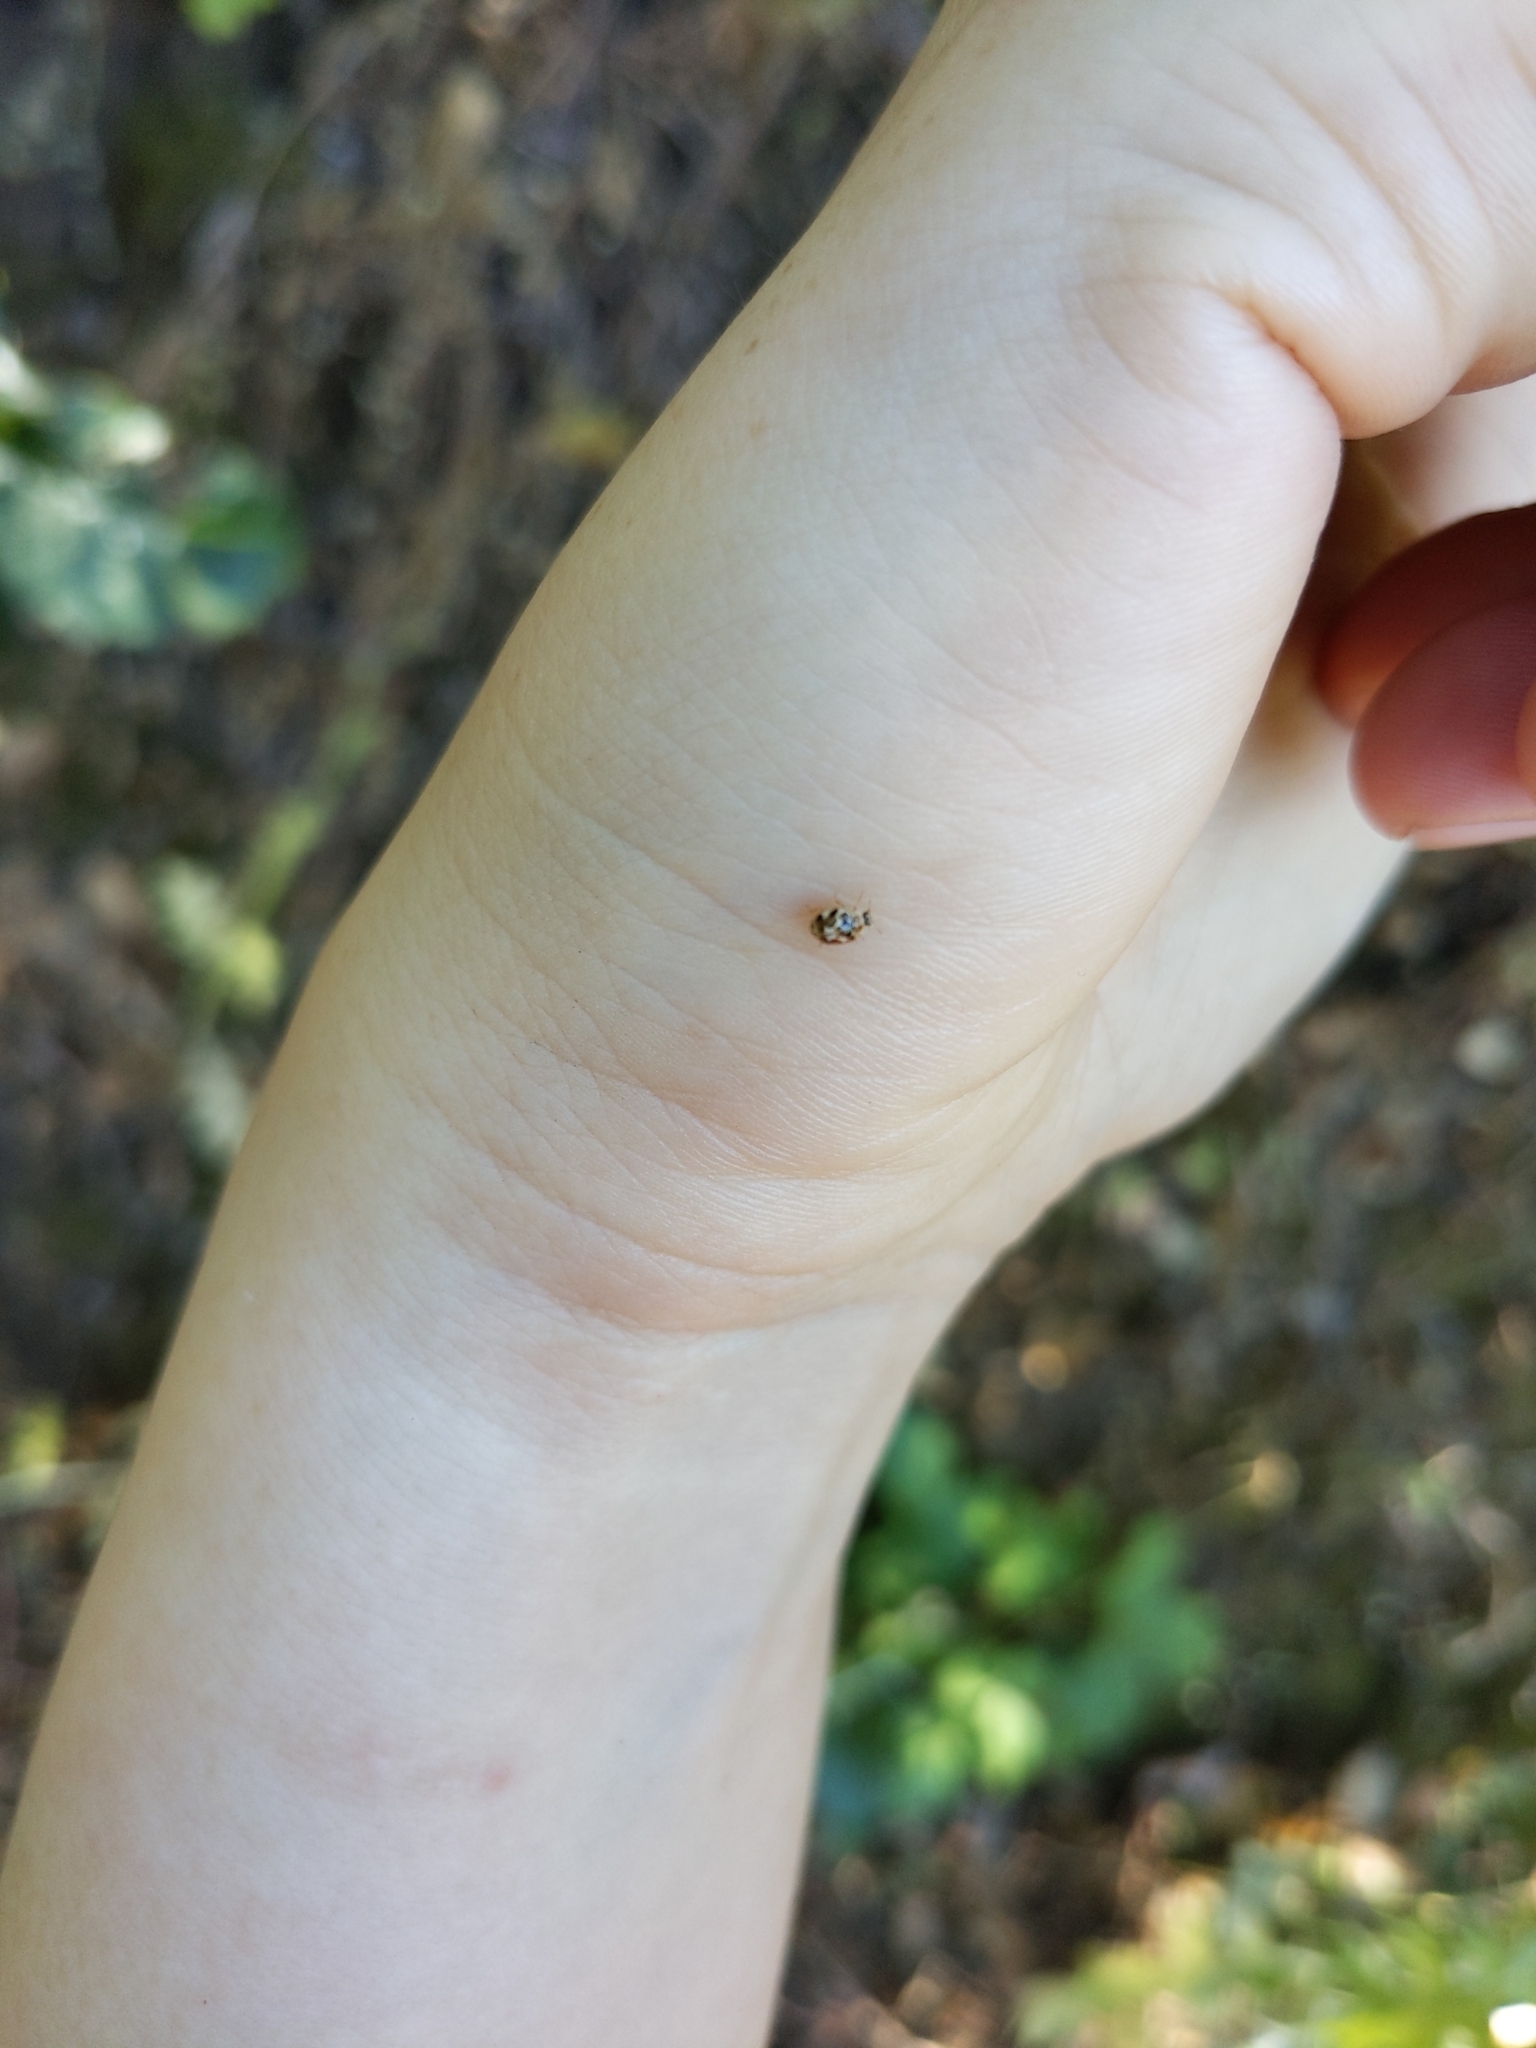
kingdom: Animalia
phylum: Arthropoda
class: Insecta
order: Coleoptera
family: Coccinellidae
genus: Psyllobora
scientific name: Psyllobora vigintimaculata
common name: Ladybird beetle
